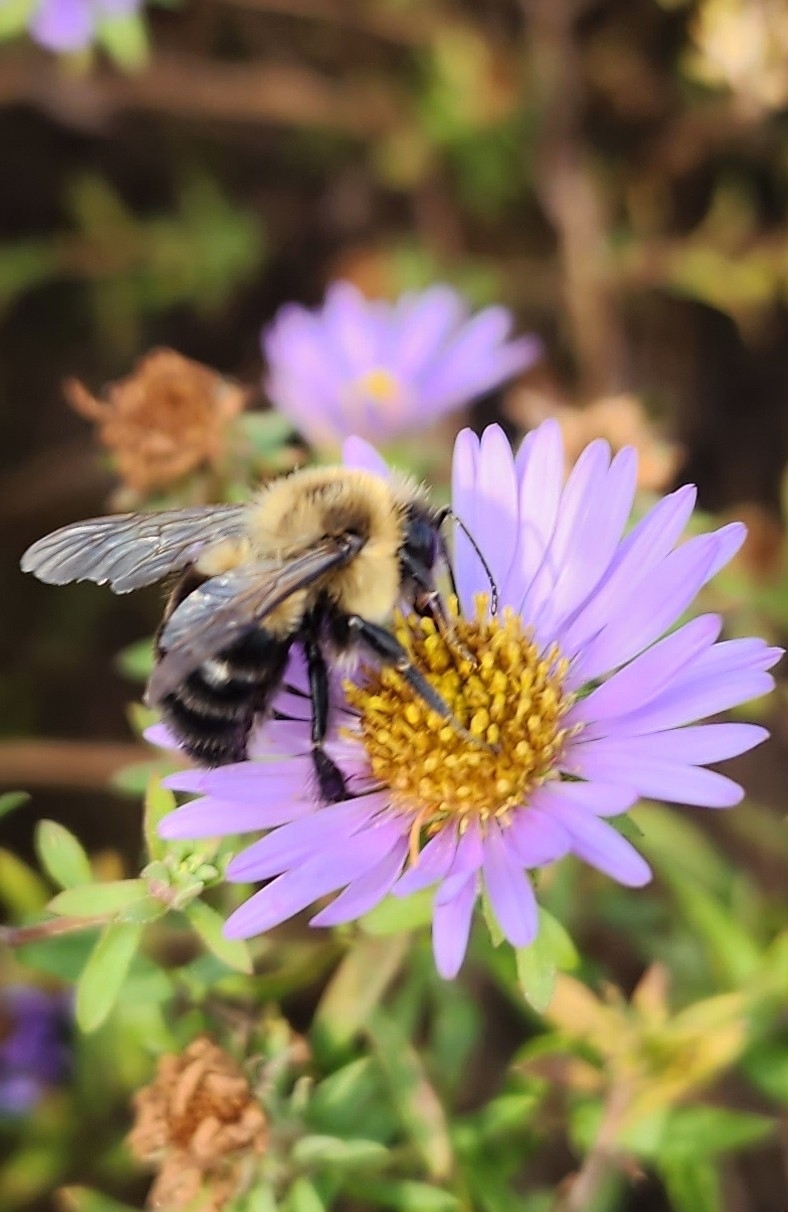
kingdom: Animalia
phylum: Arthropoda
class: Insecta
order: Hymenoptera
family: Apidae
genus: Bombus
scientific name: Bombus impatiens
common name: Common eastern bumble bee
